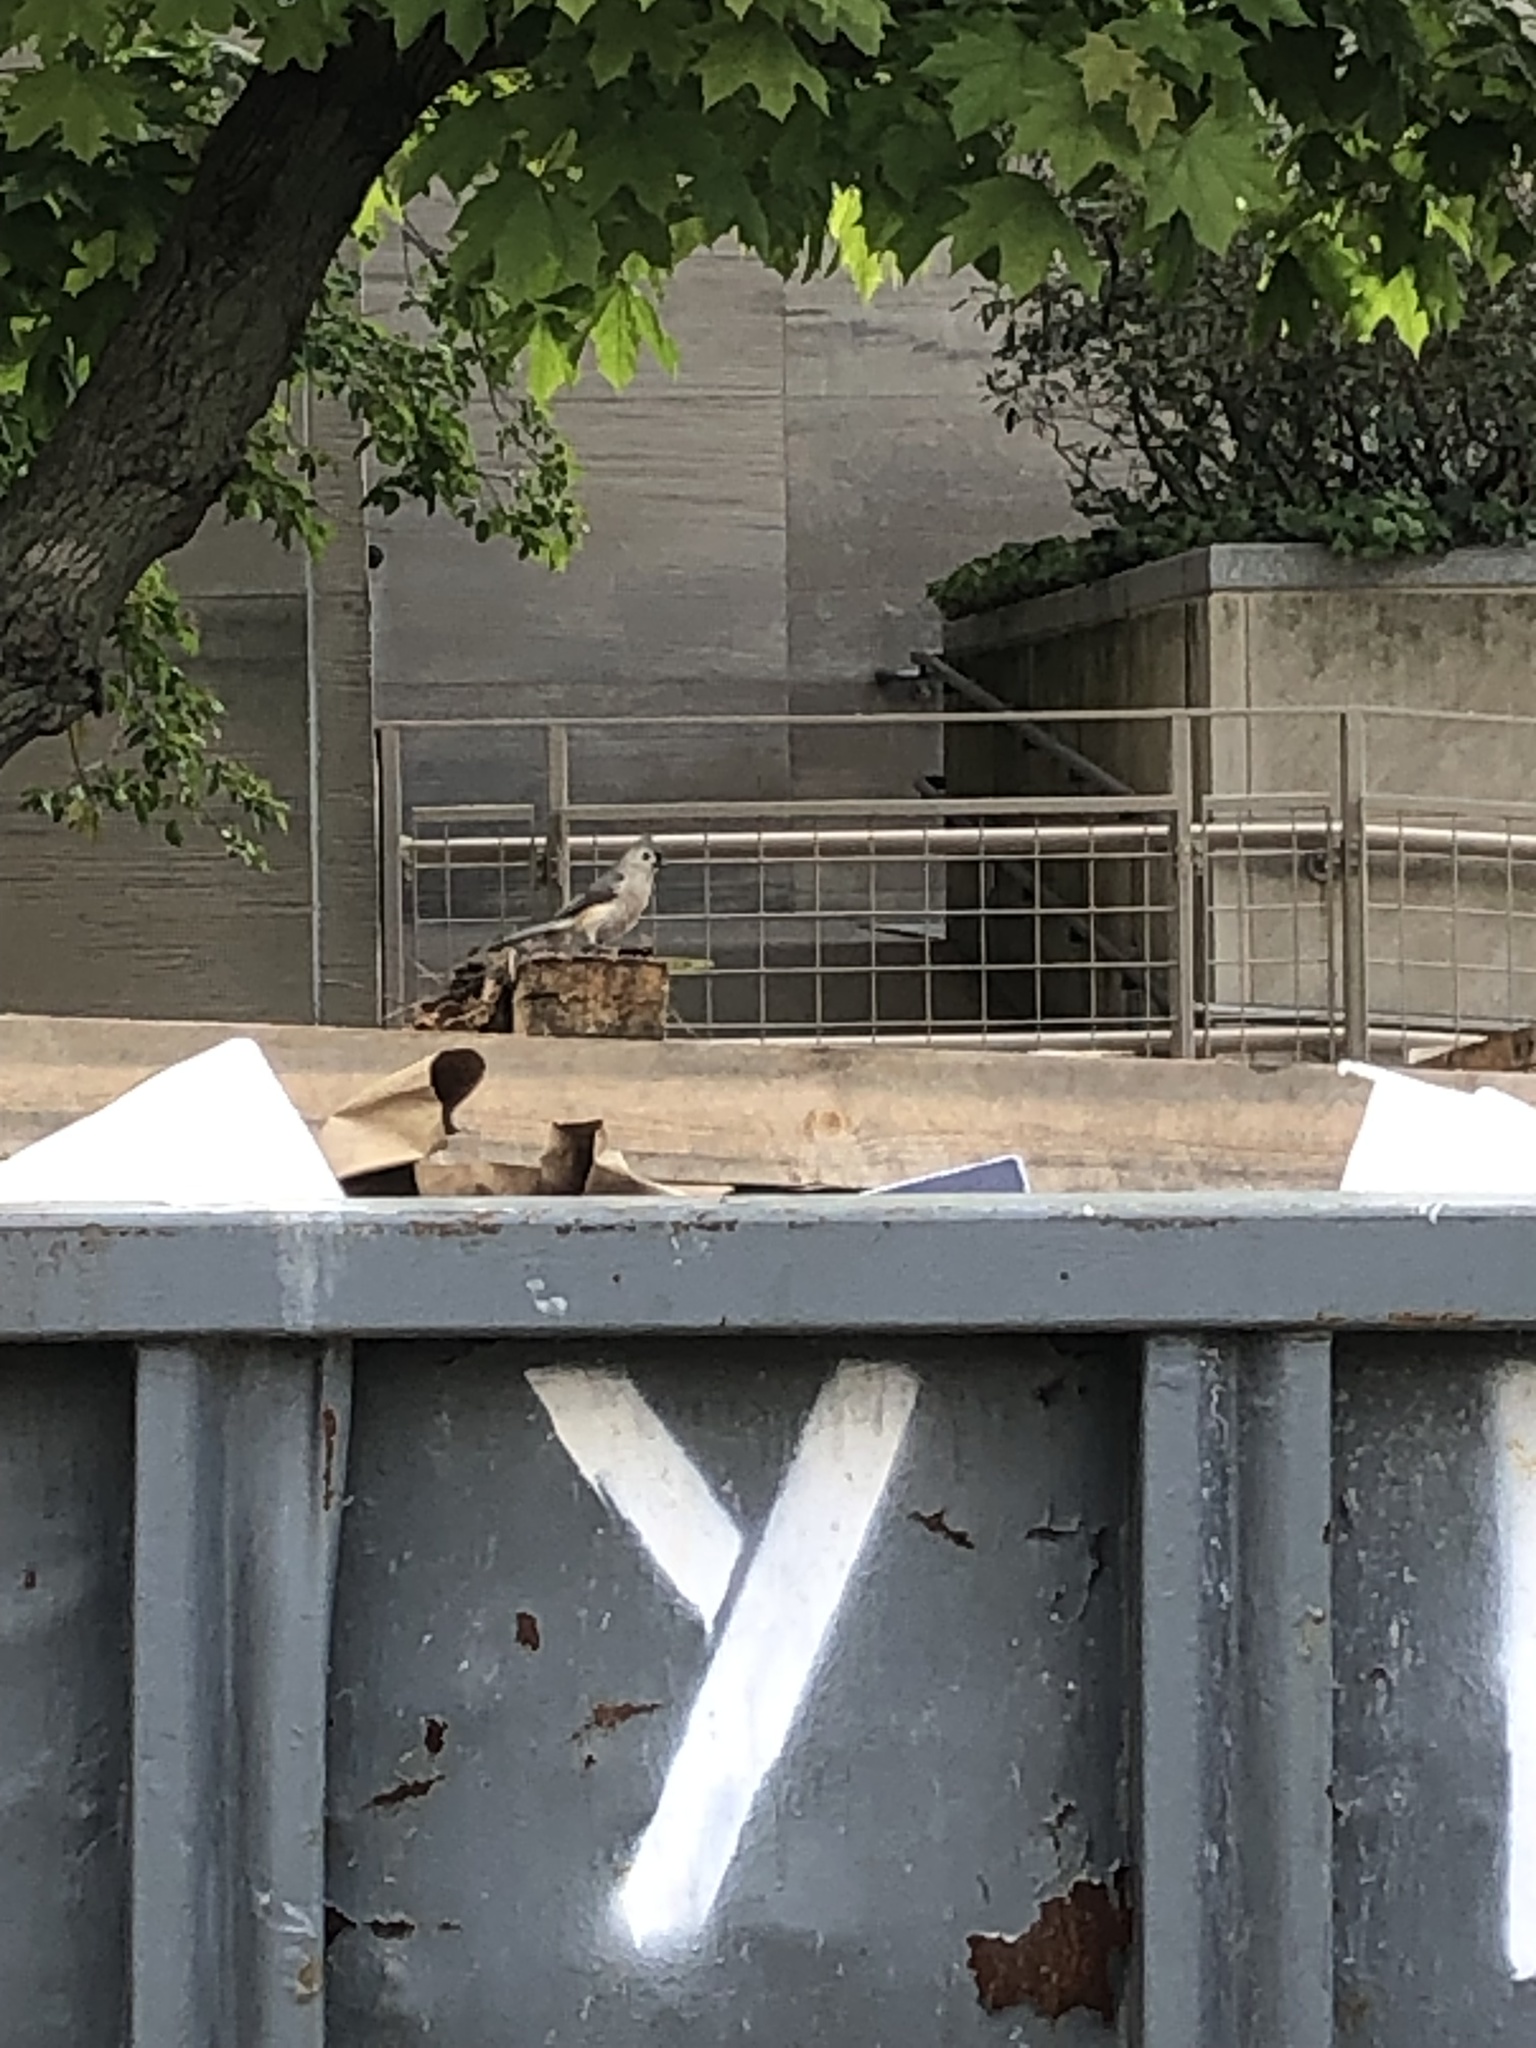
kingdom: Animalia
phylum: Chordata
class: Aves
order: Passeriformes
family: Paridae
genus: Baeolophus
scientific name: Baeolophus bicolor
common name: Tufted titmouse
